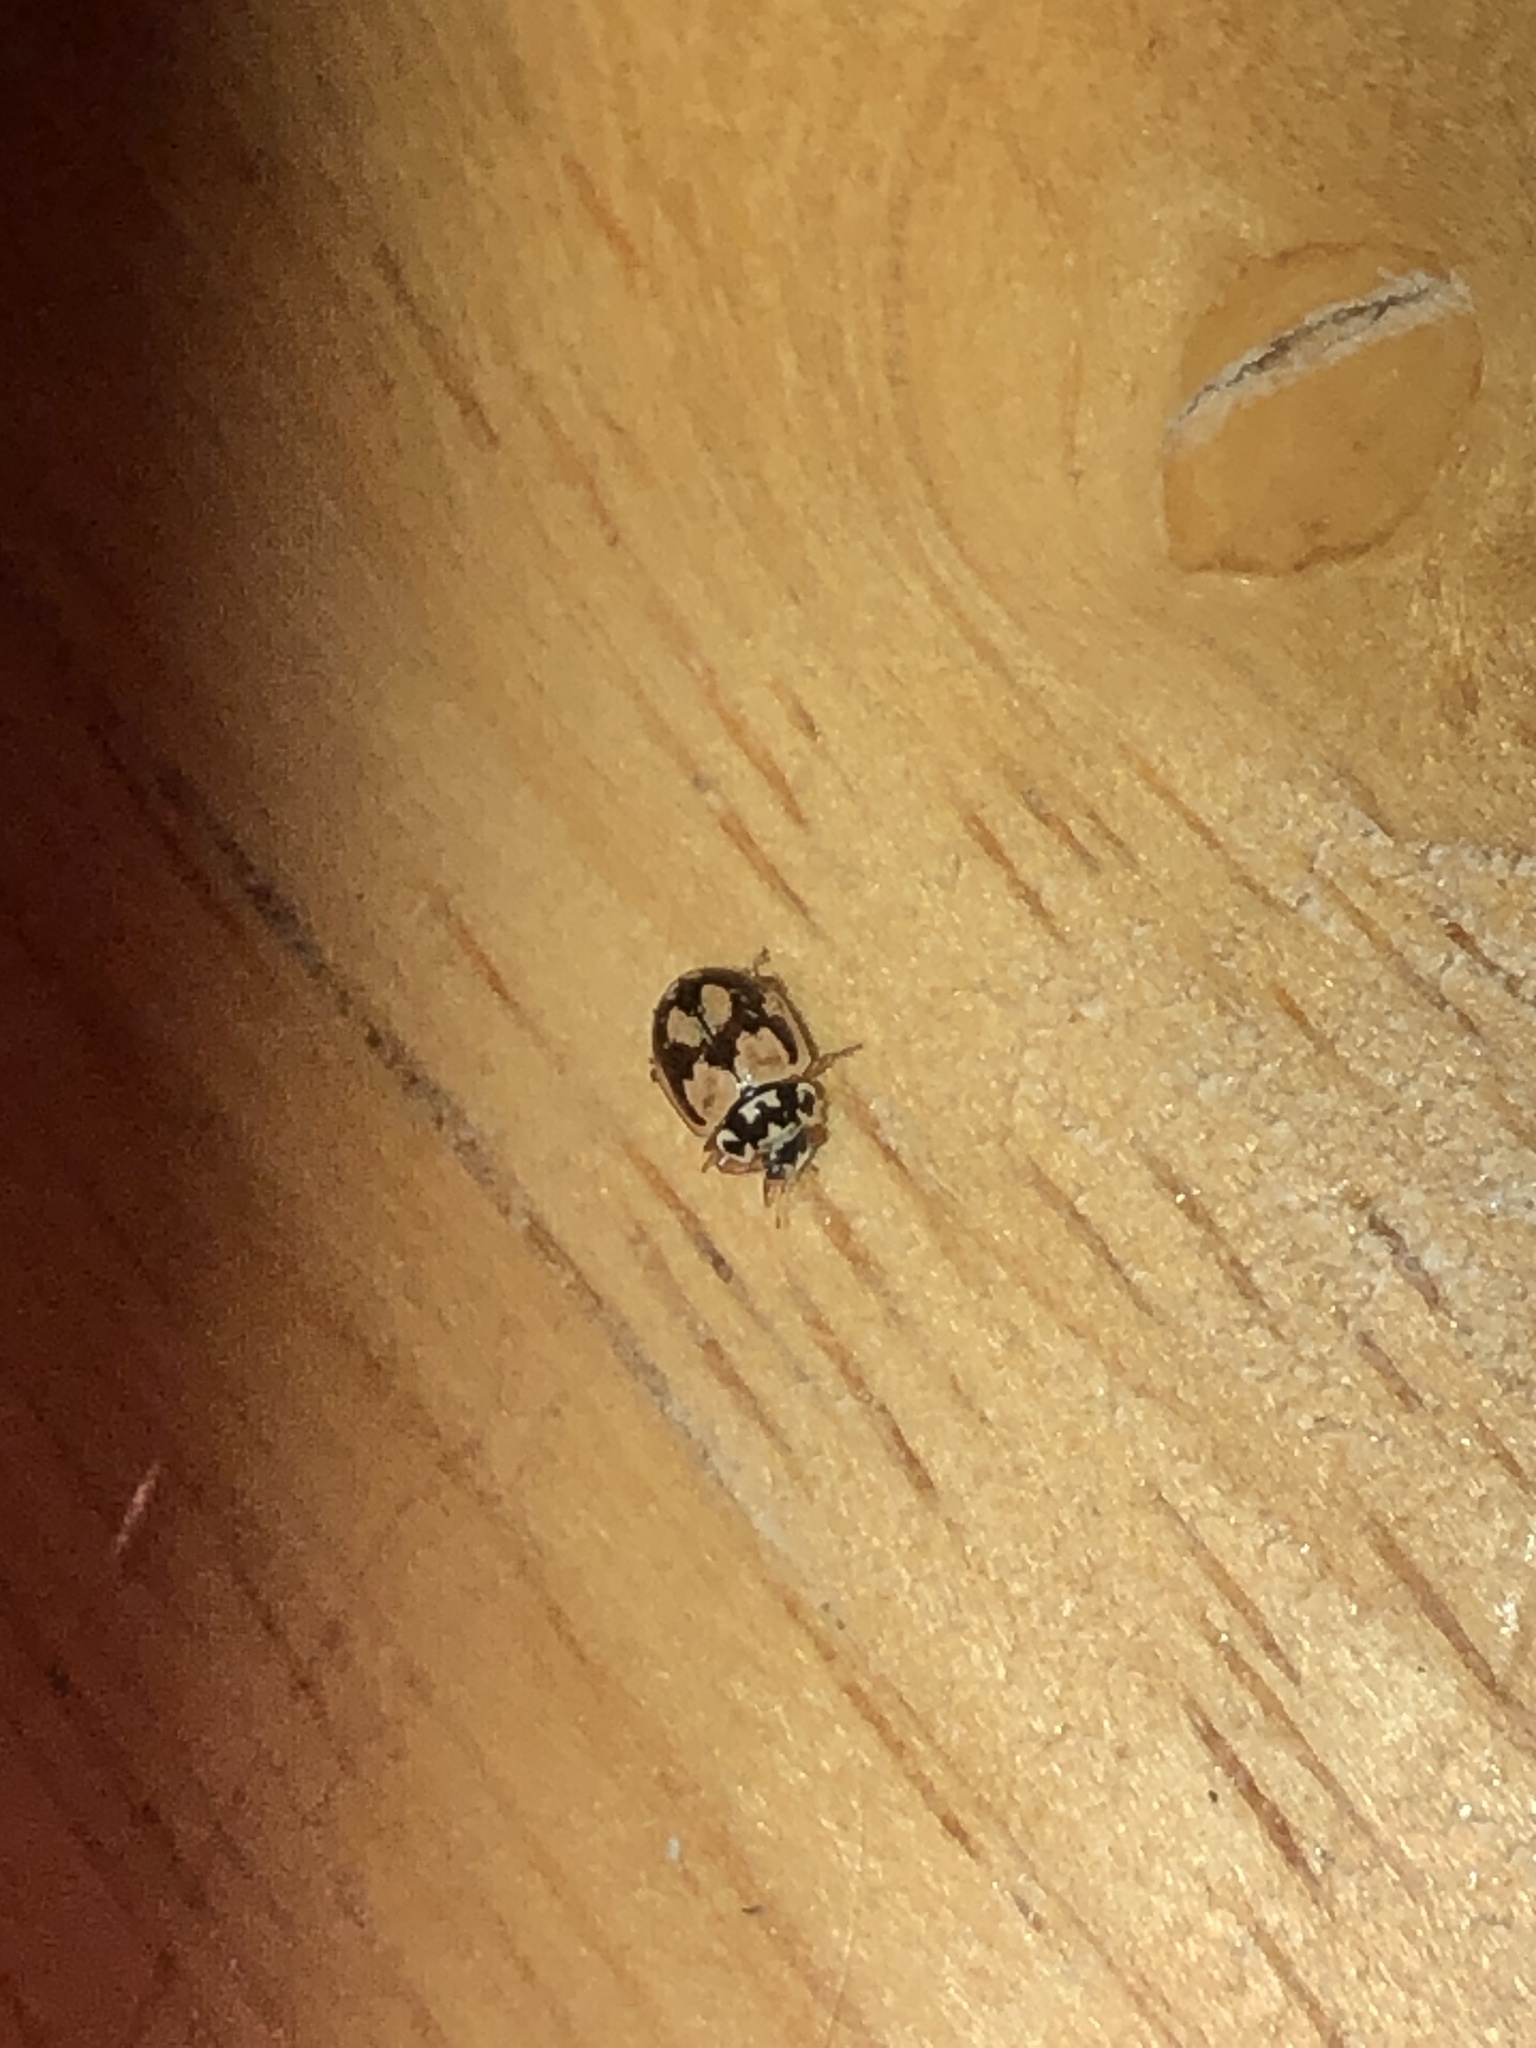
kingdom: Animalia
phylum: Arthropoda
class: Insecta
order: Coleoptera
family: Coccinellidae
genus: Mulsantina
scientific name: Mulsantina picta
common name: Painted ladybird
